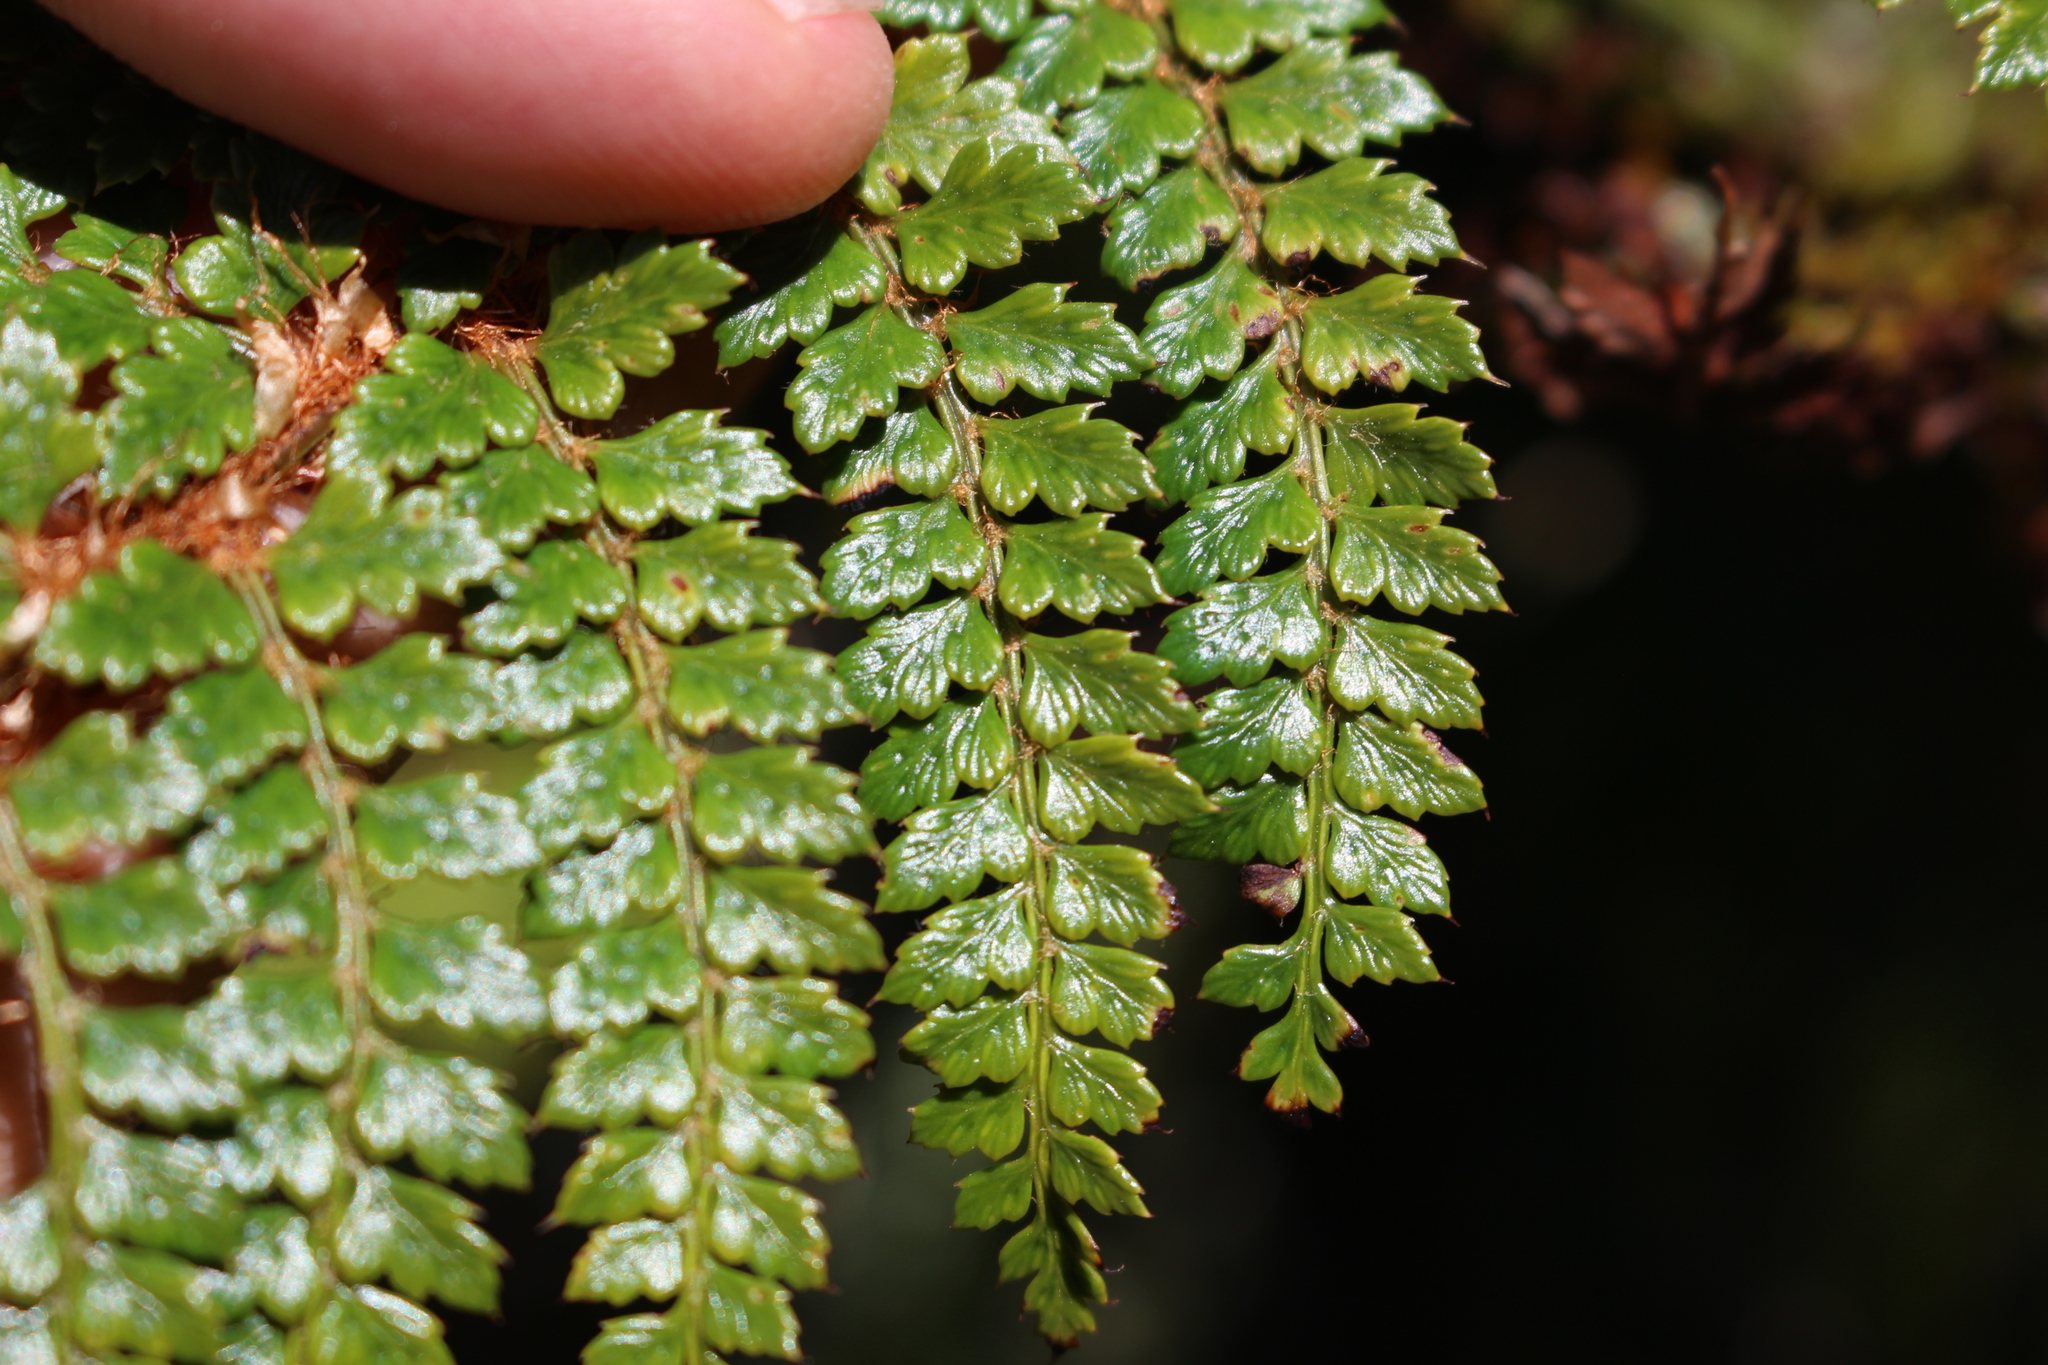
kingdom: Plantae
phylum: Tracheophyta
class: Polypodiopsida
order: Polypodiales
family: Dryopteridaceae
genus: Polystichum
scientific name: Polystichum vestitum
